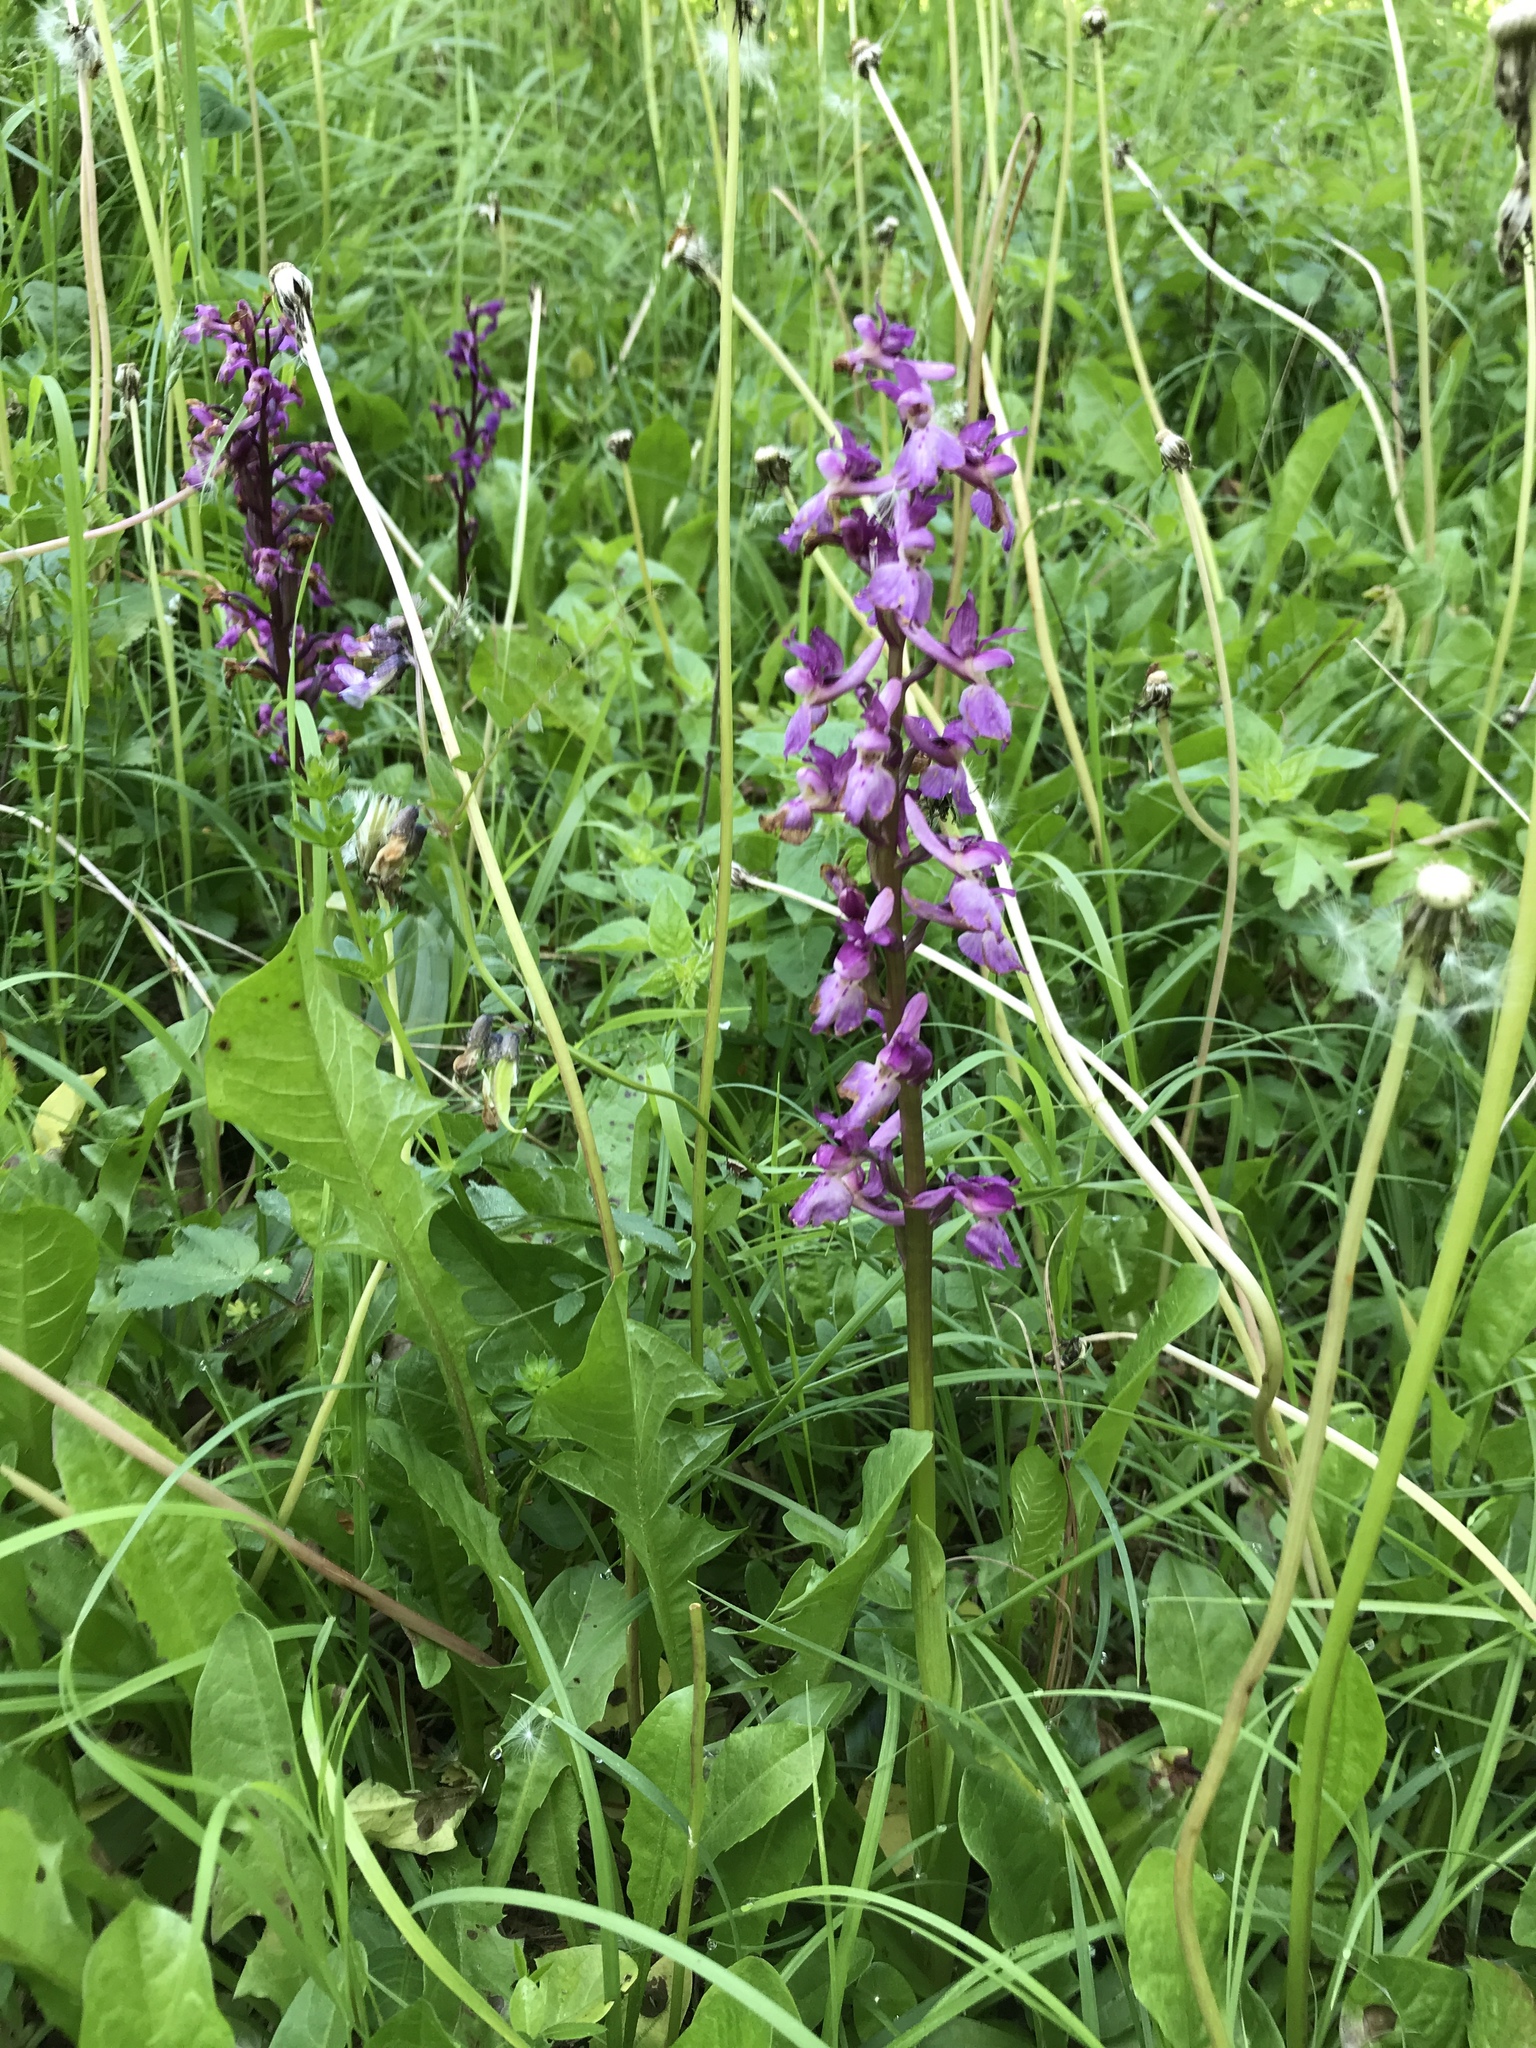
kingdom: Plantae
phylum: Tracheophyta
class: Liliopsida
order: Asparagales
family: Orchidaceae
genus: Orchis
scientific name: Orchis mascula
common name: Early-purple orchid
